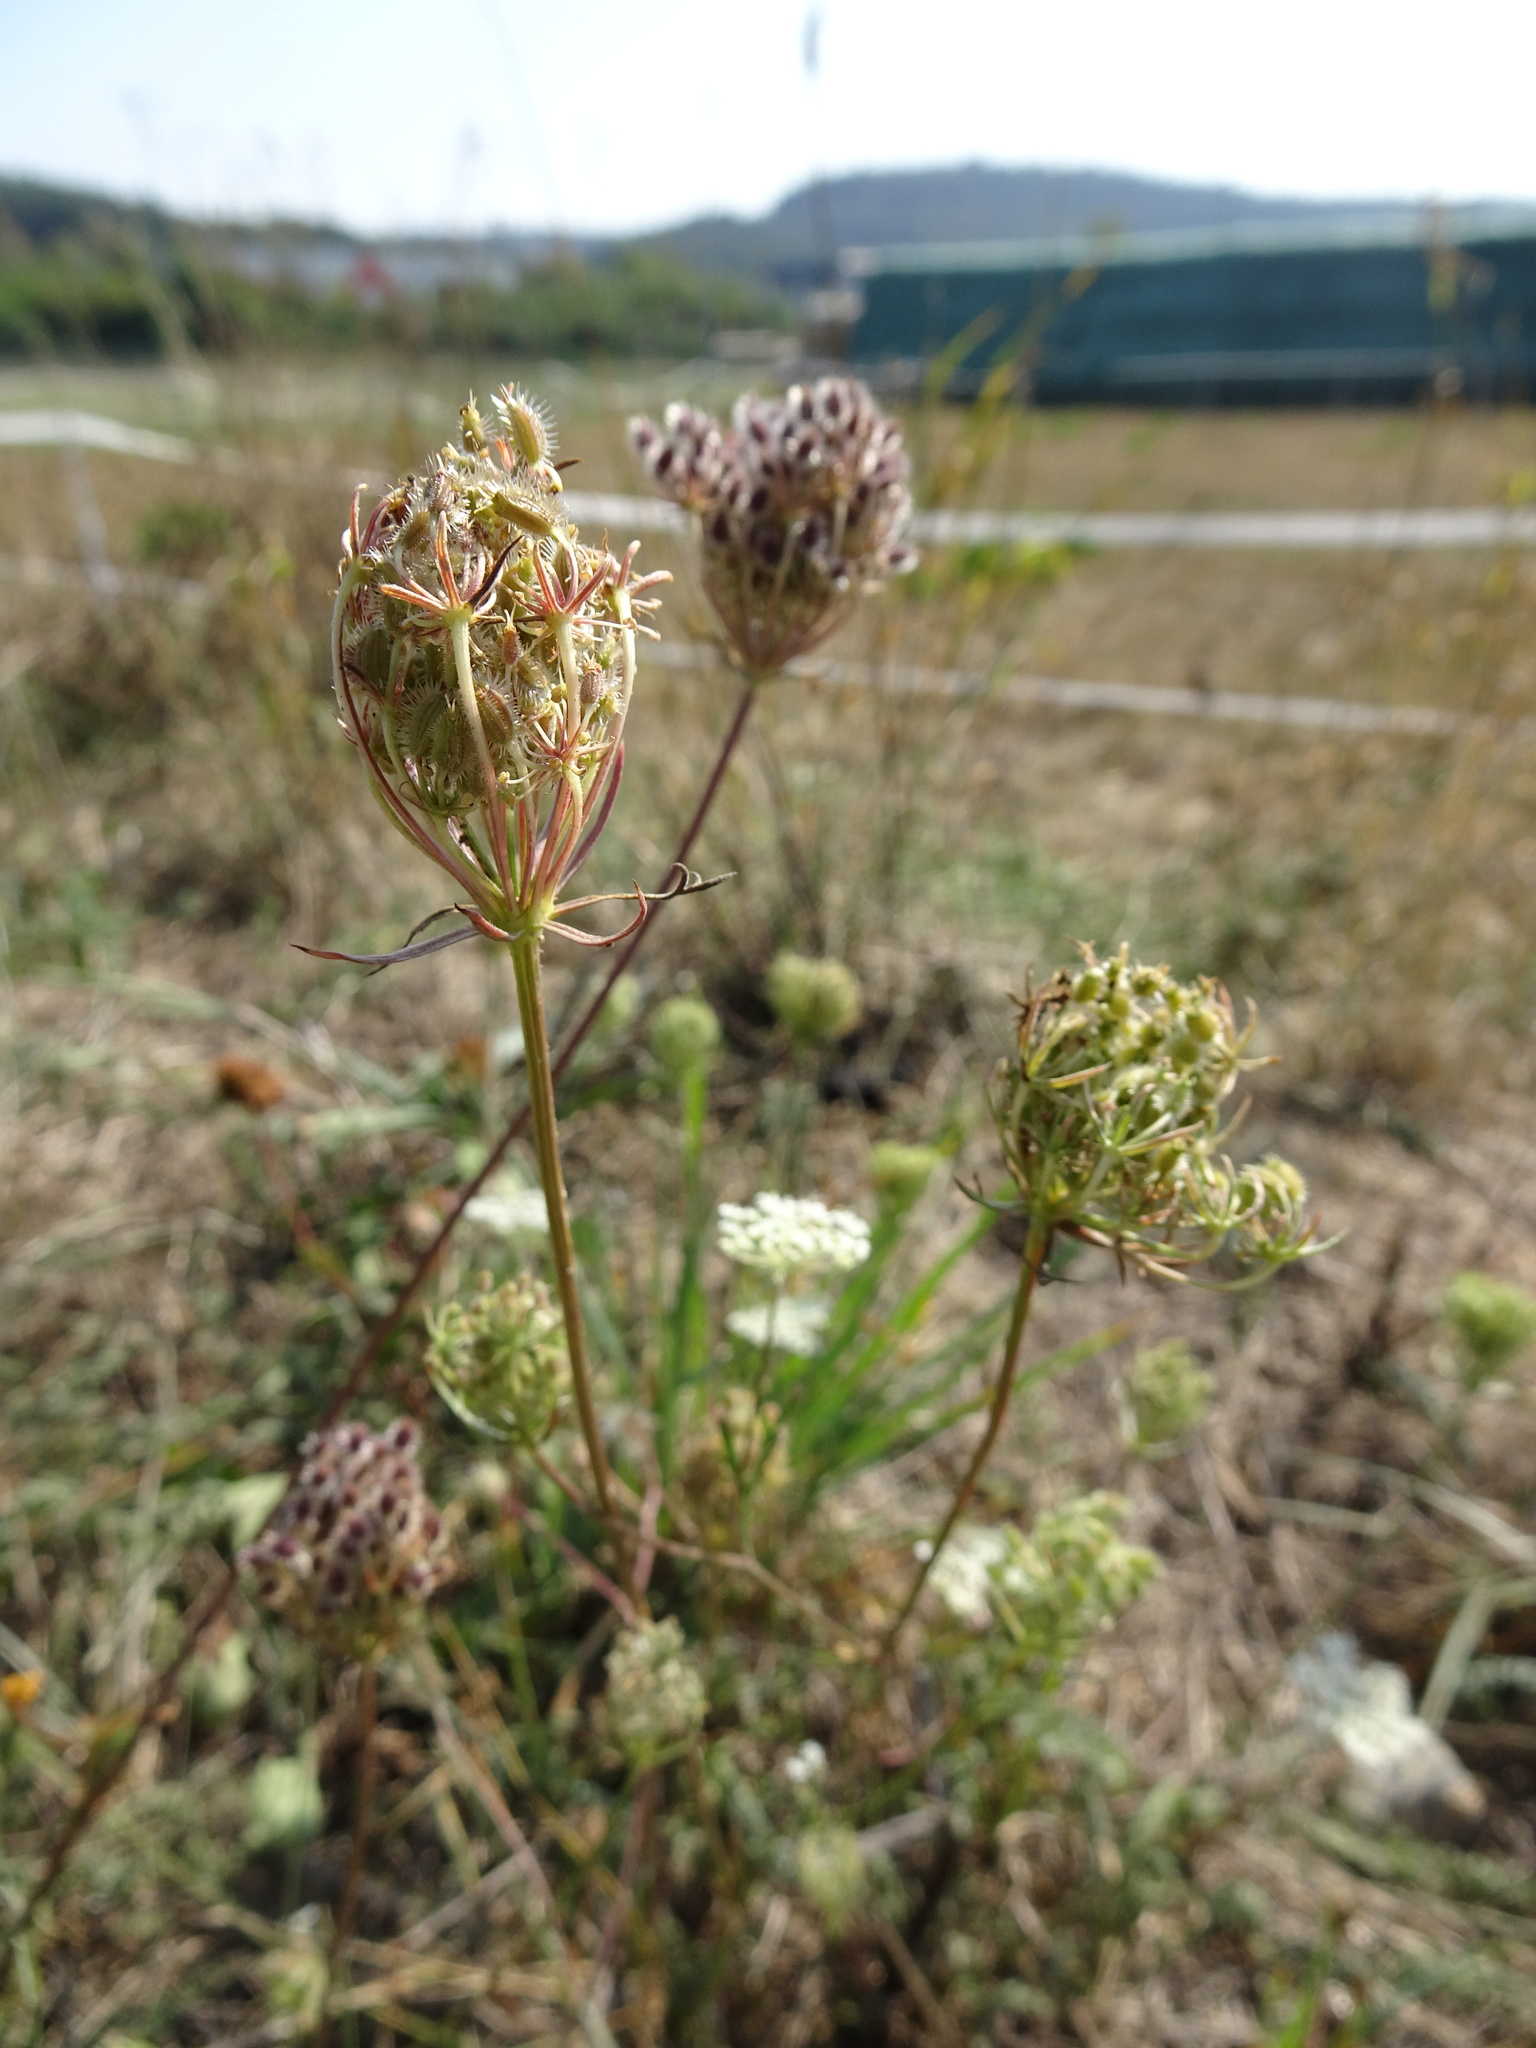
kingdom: Plantae
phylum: Tracheophyta
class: Magnoliopsida
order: Apiales
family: Apiaceae
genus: Daucus
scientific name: Daucus carota
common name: Wild carrot
